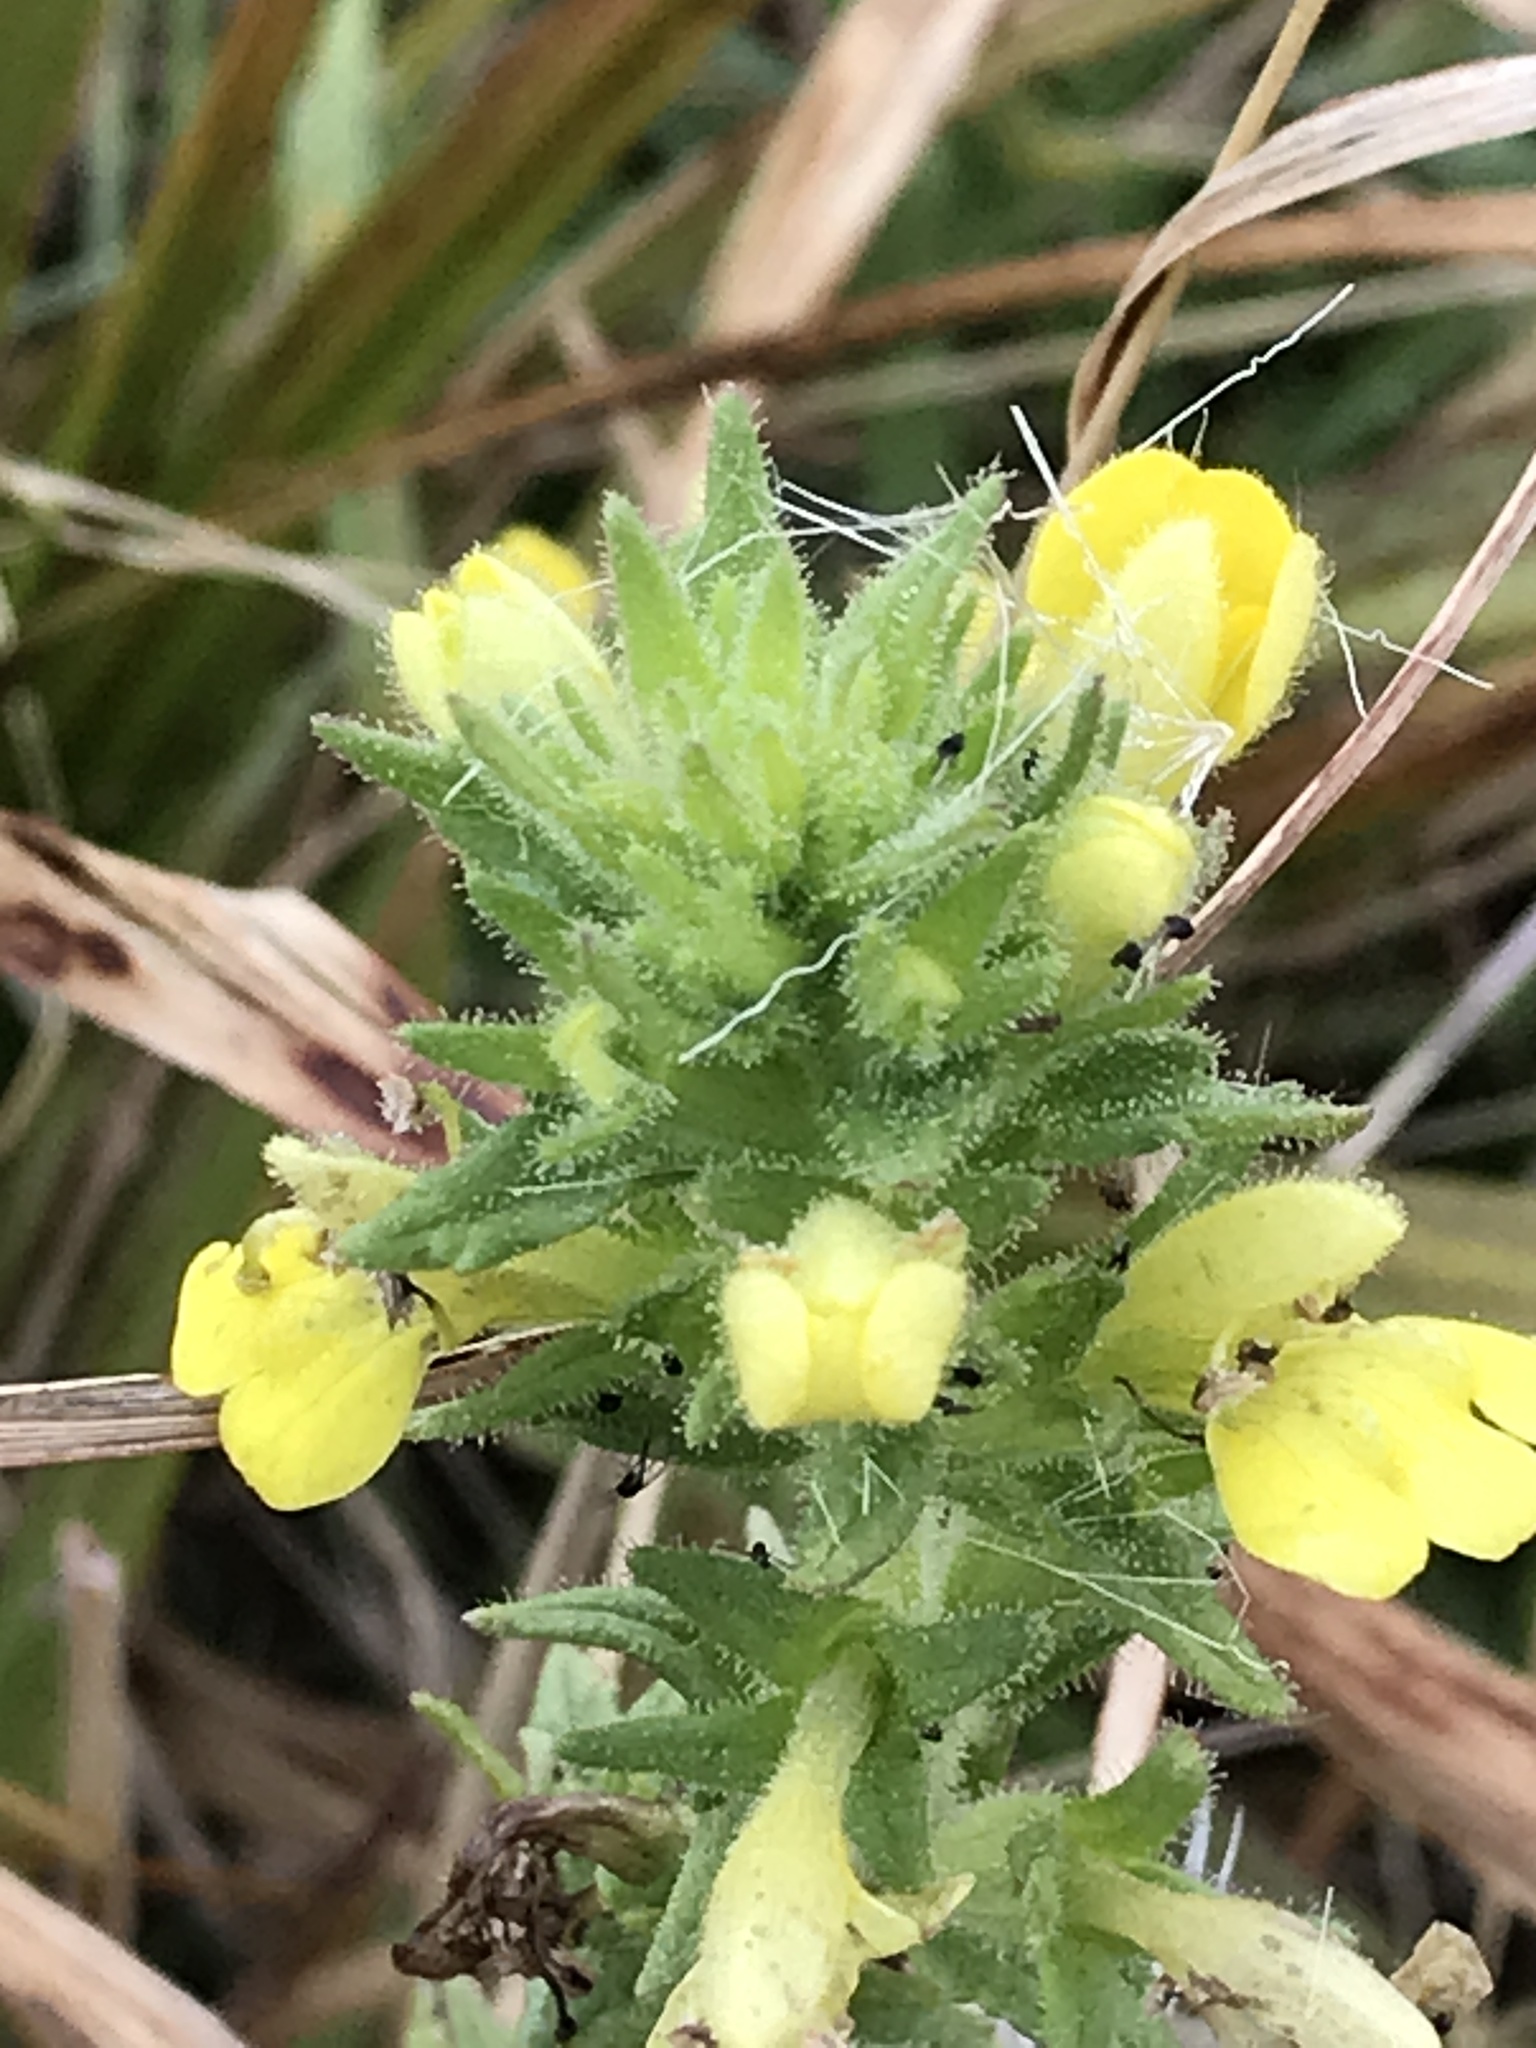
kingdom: Plantae
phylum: Tracheophyta
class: Magnoliopsida
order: Lamiales
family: Orobanchaceae
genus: Bellardia
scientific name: Bellardia viscosa
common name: Sticky parentucellia
